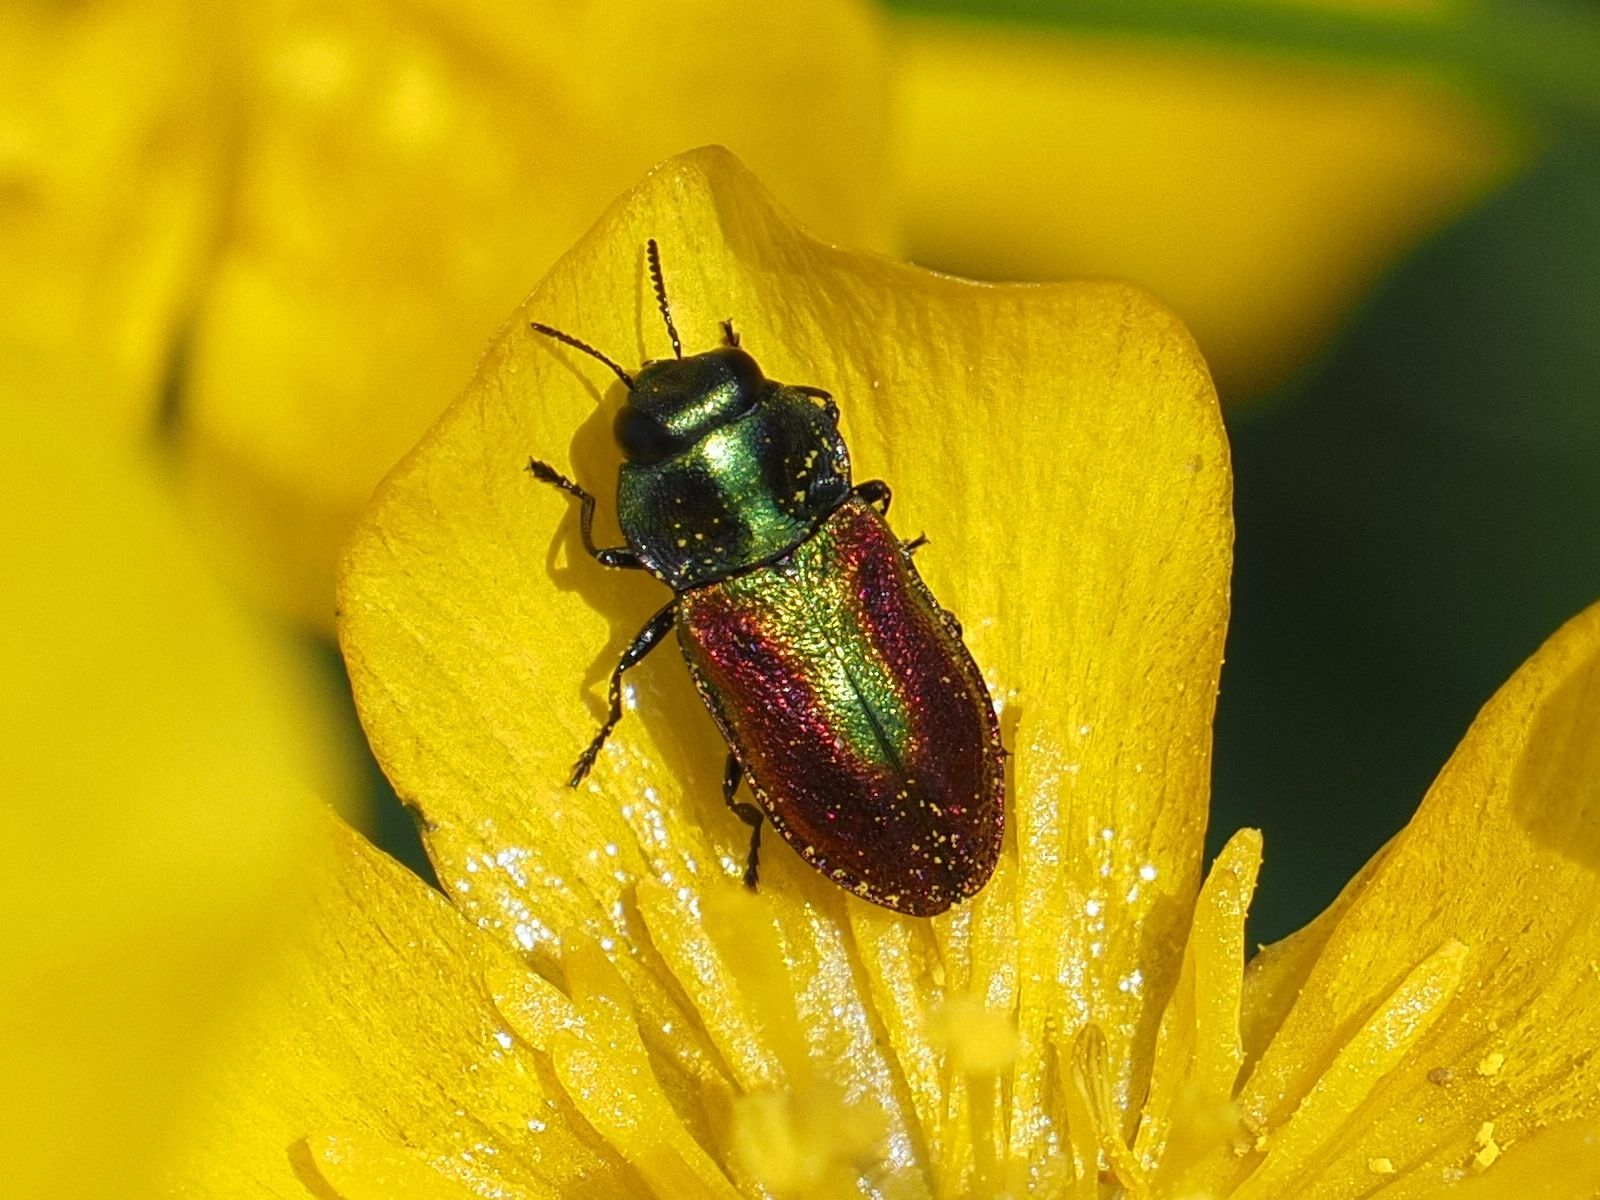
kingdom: Animalia
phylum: Arthropoda
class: Insecta
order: Coleoptera
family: Buprestidae
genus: Anthaxia
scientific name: Anthaxia fulgurans
